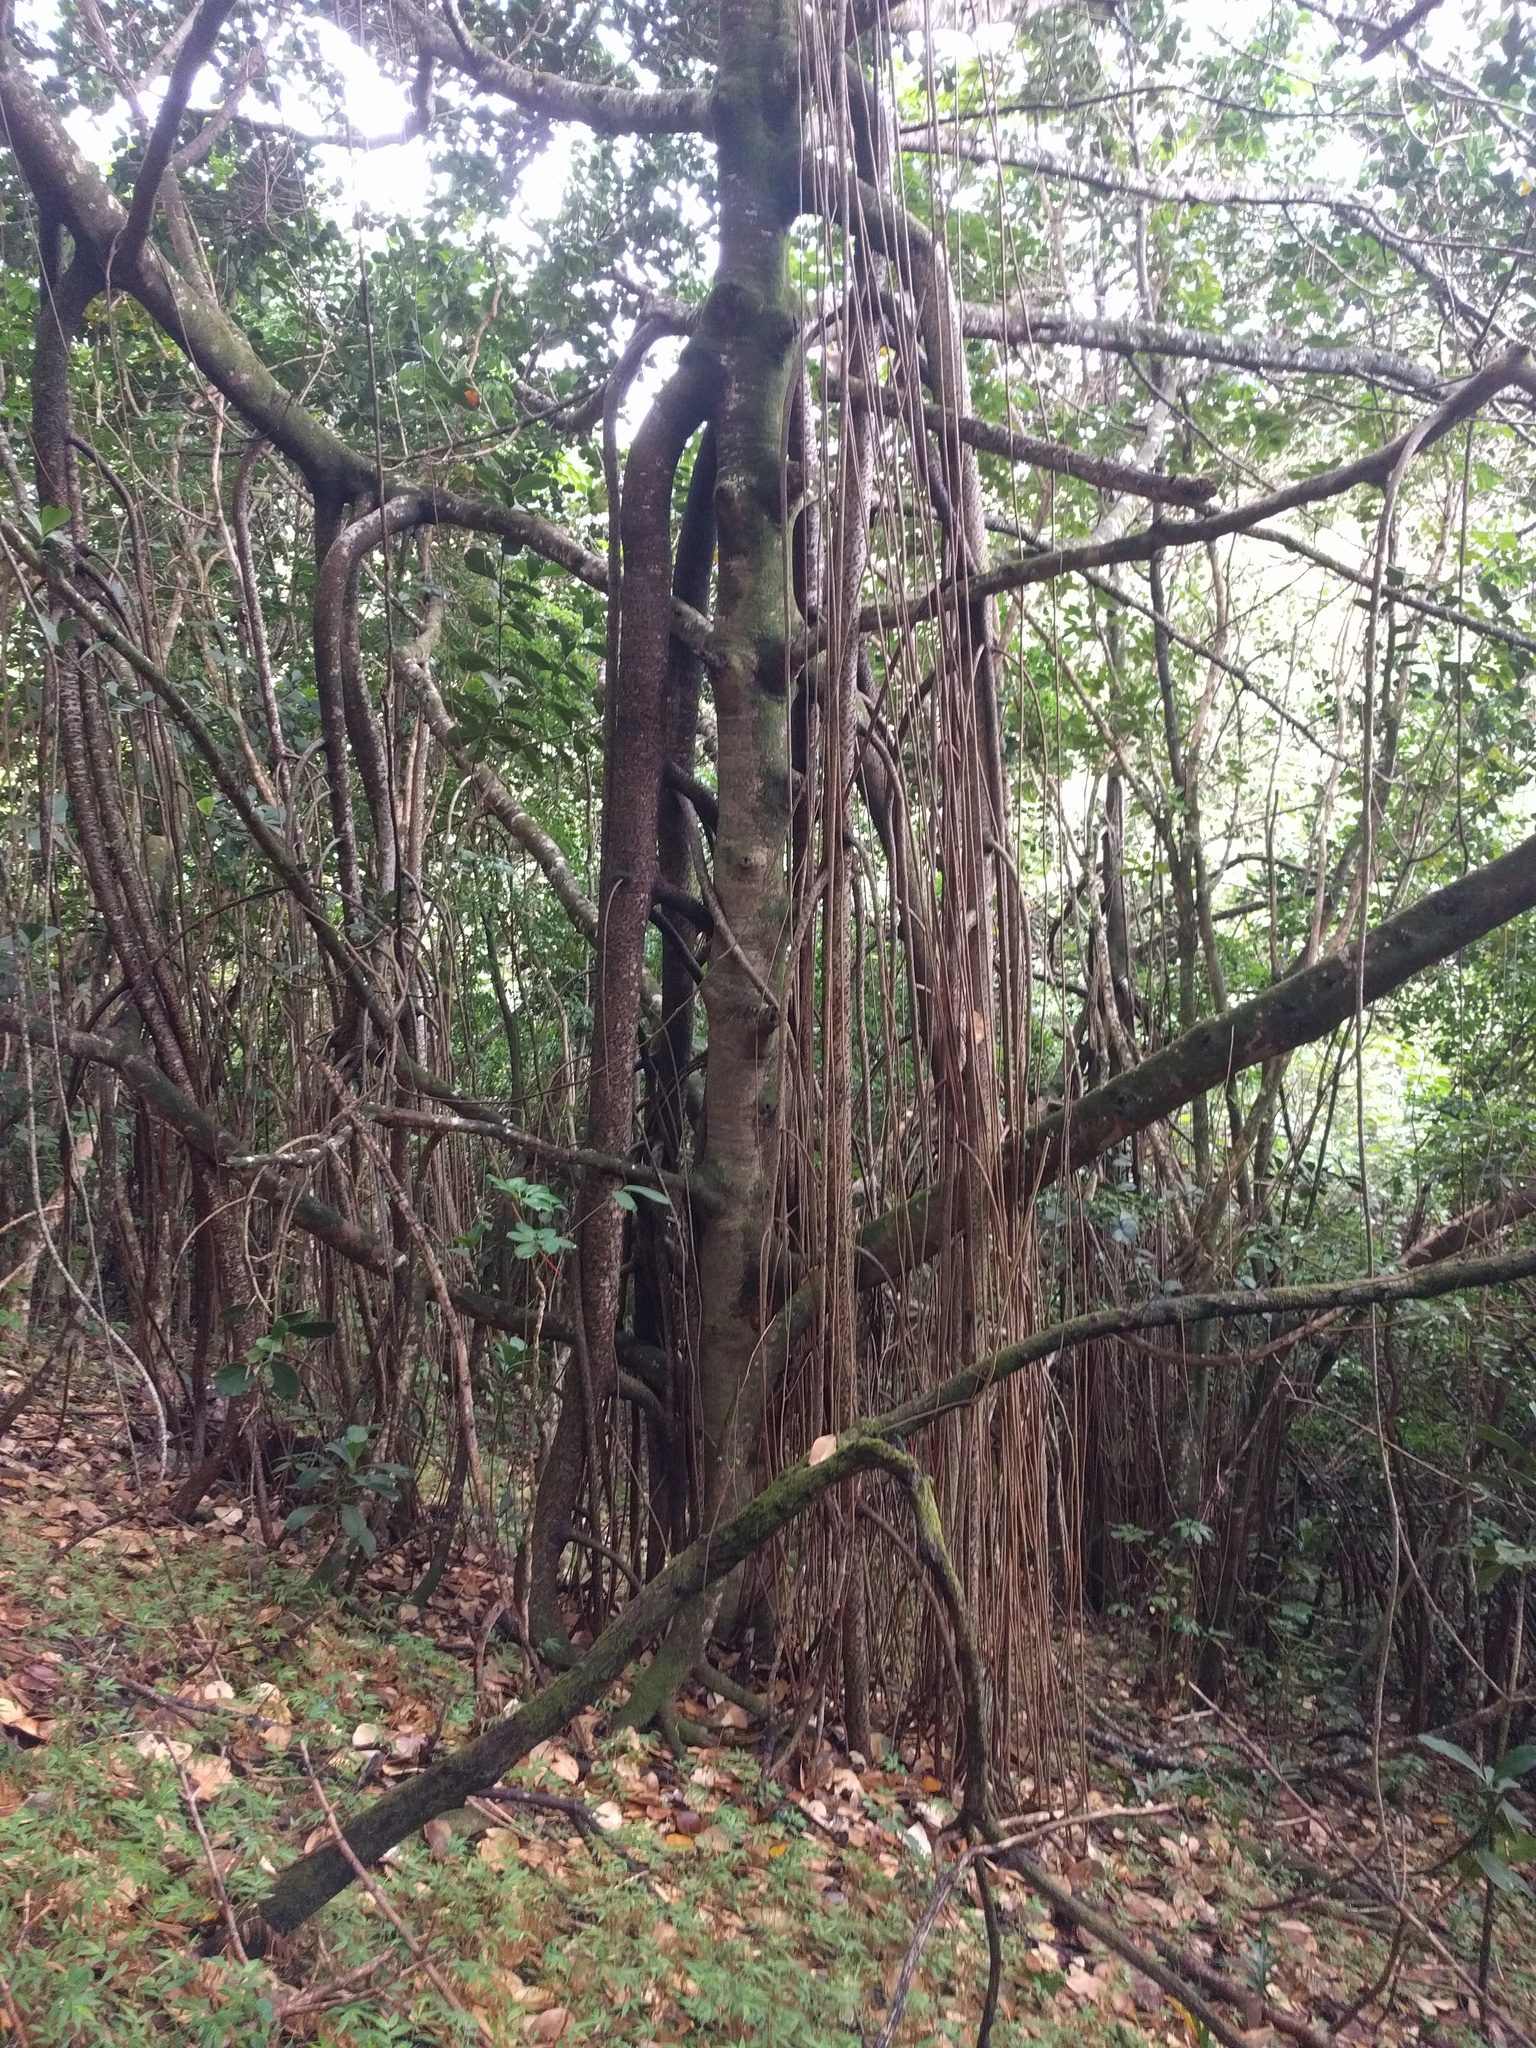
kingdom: Plantae
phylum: Tracheophyta
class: Magnoliopsida
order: Malpighiales
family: Clusiaceae
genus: Clusia
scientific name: Clusia rosea
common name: Scotch attorney
